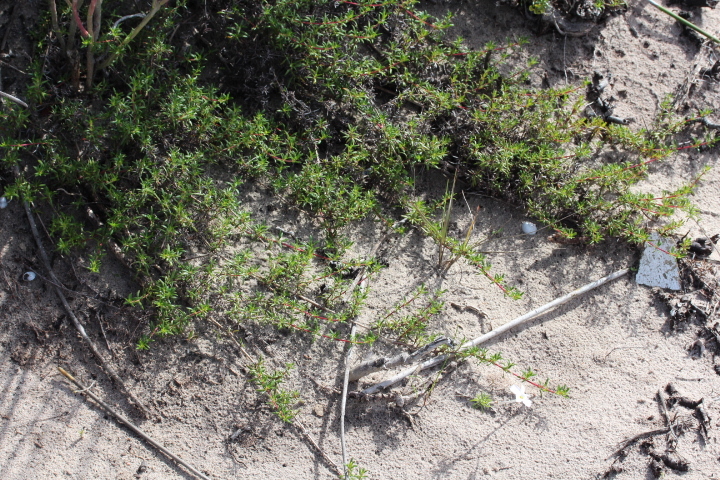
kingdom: Plantae
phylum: Tracheophyta
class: Magnoliopsida
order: Oxalidales
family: Oxalidaceae
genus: Oxalis
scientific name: Oxalis hirta
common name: Tropical woodsorrel
